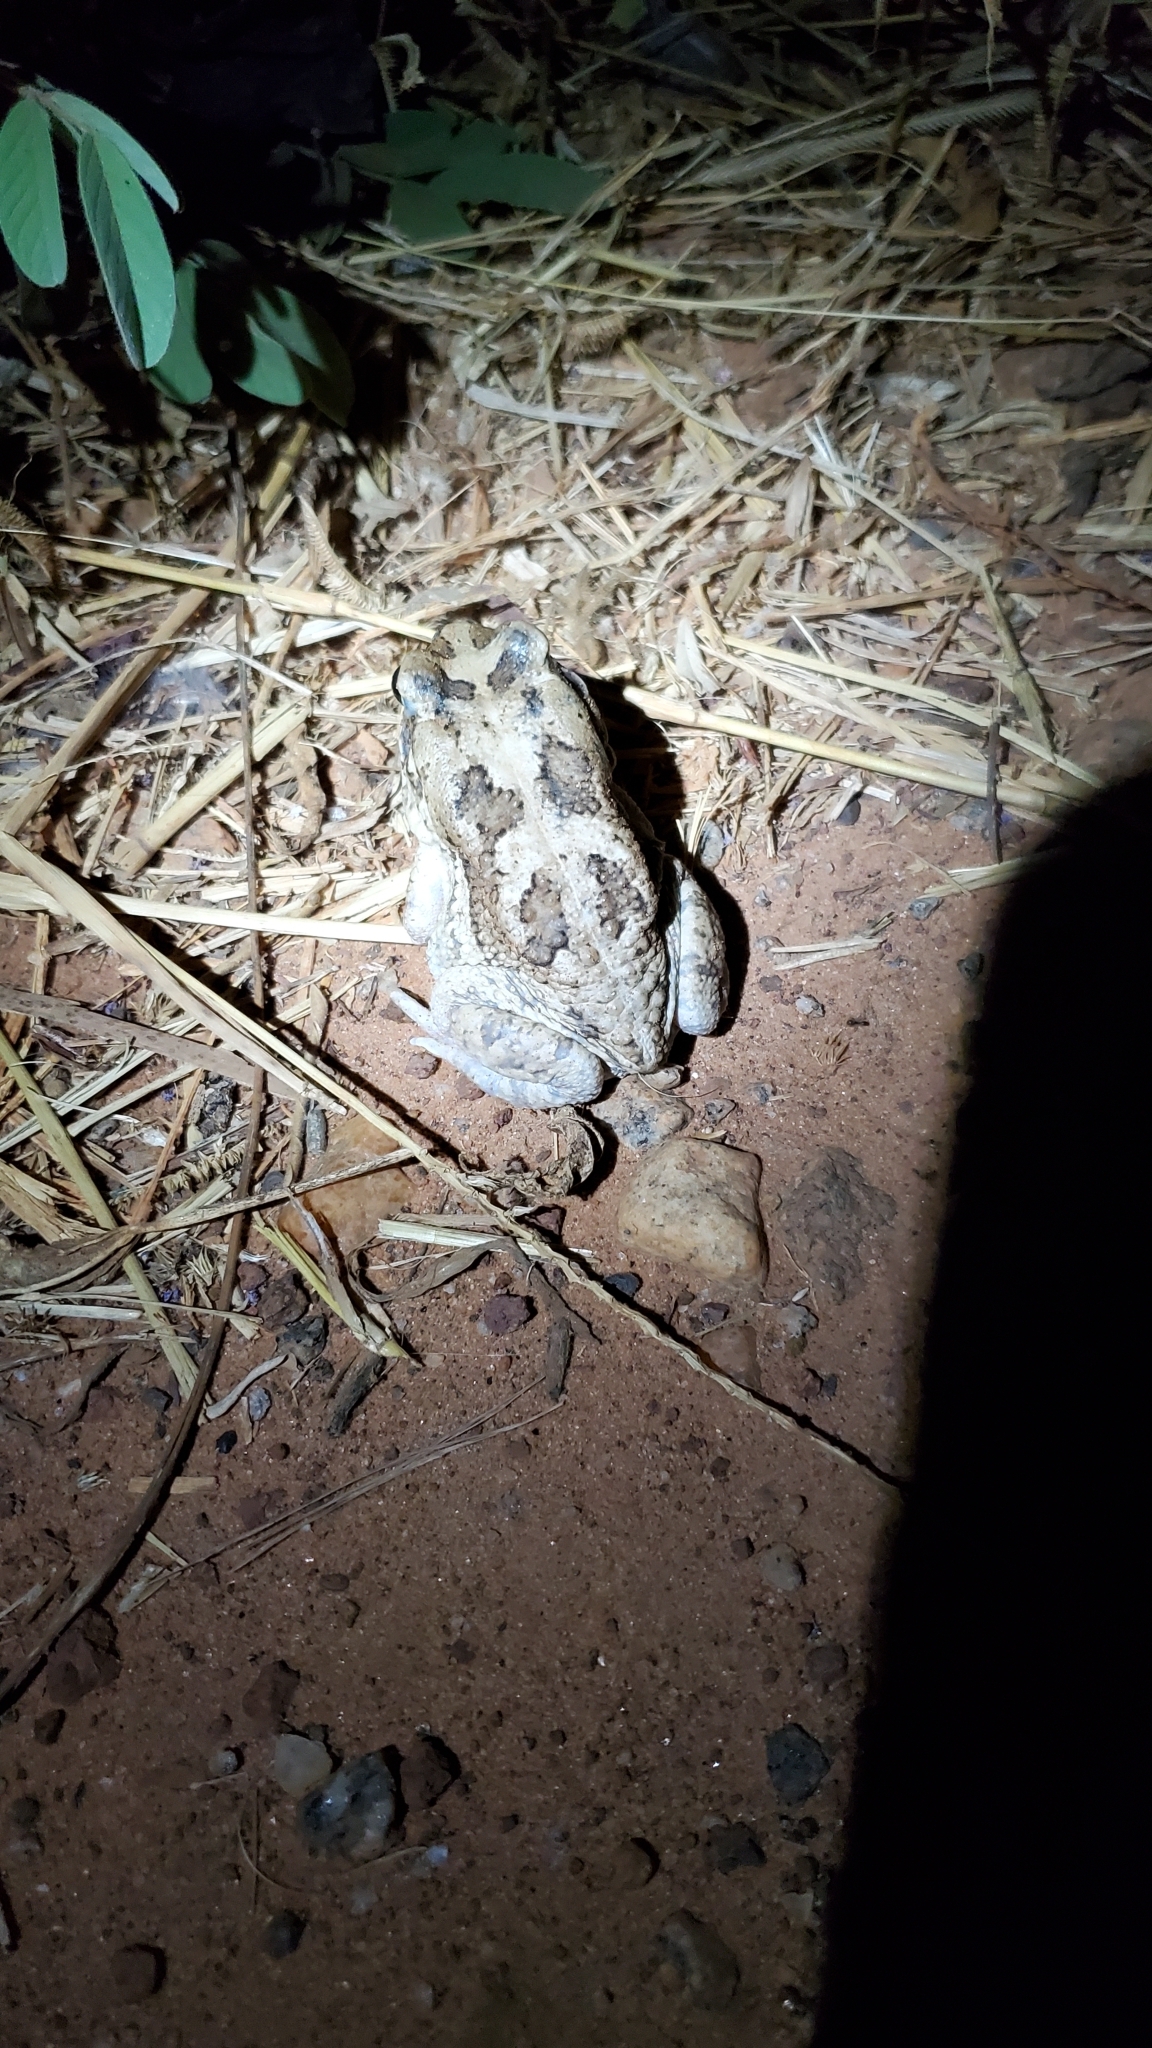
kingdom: Animalia
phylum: Chordata
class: Amphibia
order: Anura
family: Bufonidae
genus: Sclerophrys
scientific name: Sclerophrys regularis
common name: African common toad
